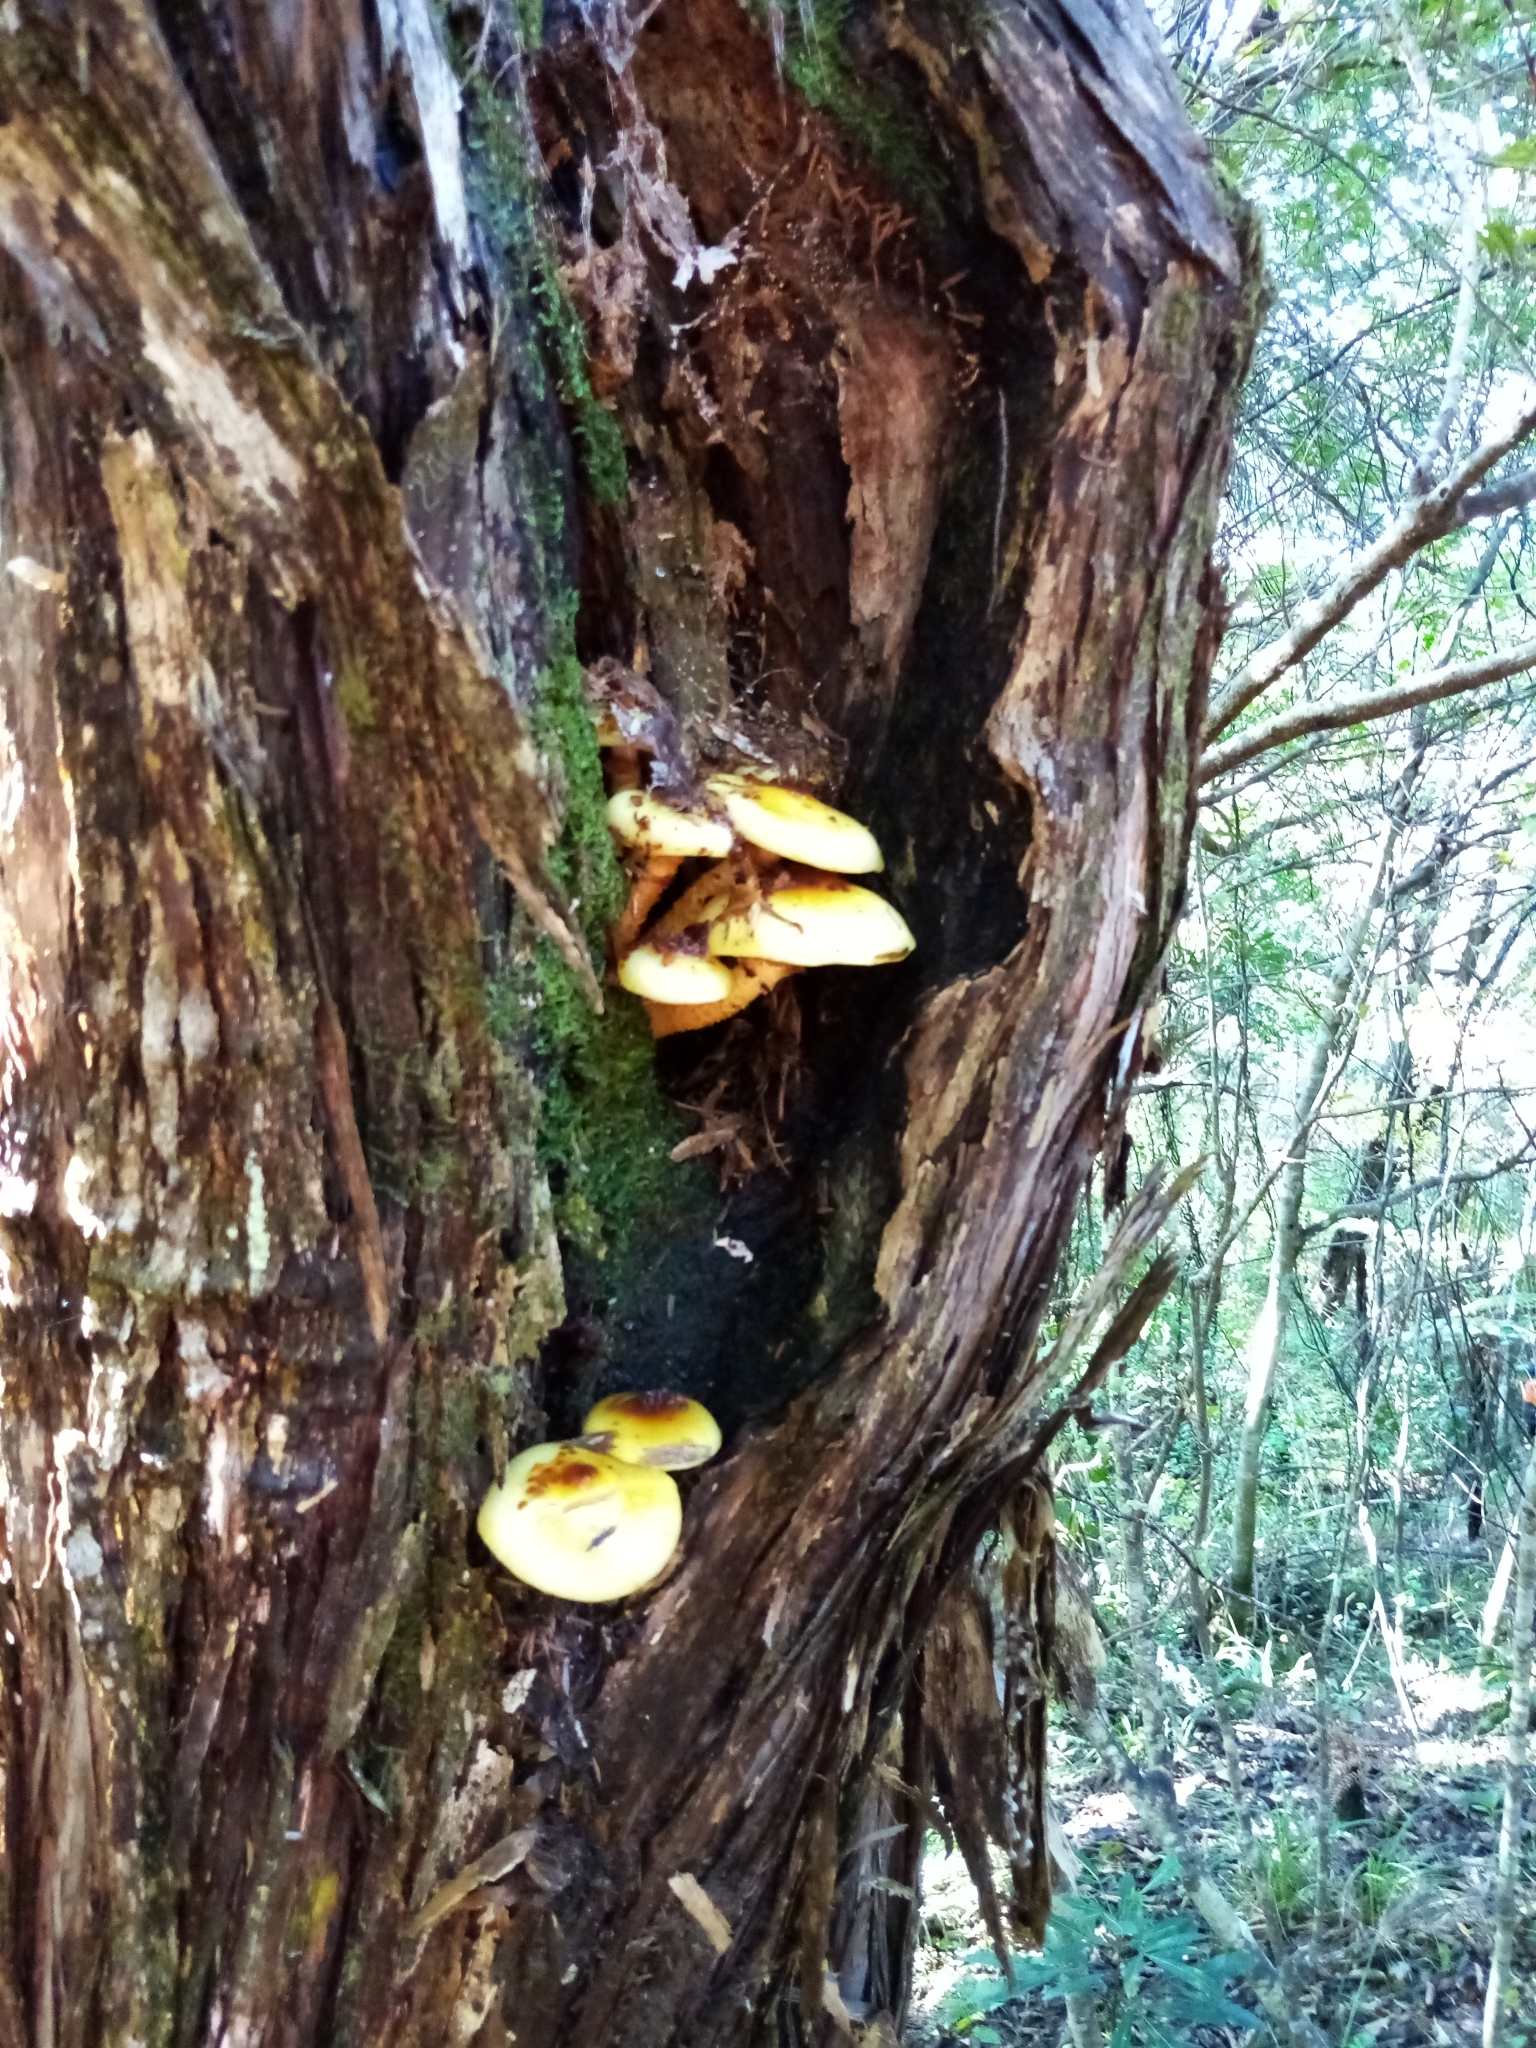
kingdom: Fungi
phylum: Basidiomycota
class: Agaricomycetes
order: Agaricales
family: Strophariaceae
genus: Pholiota
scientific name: Pholiota glutinosa
